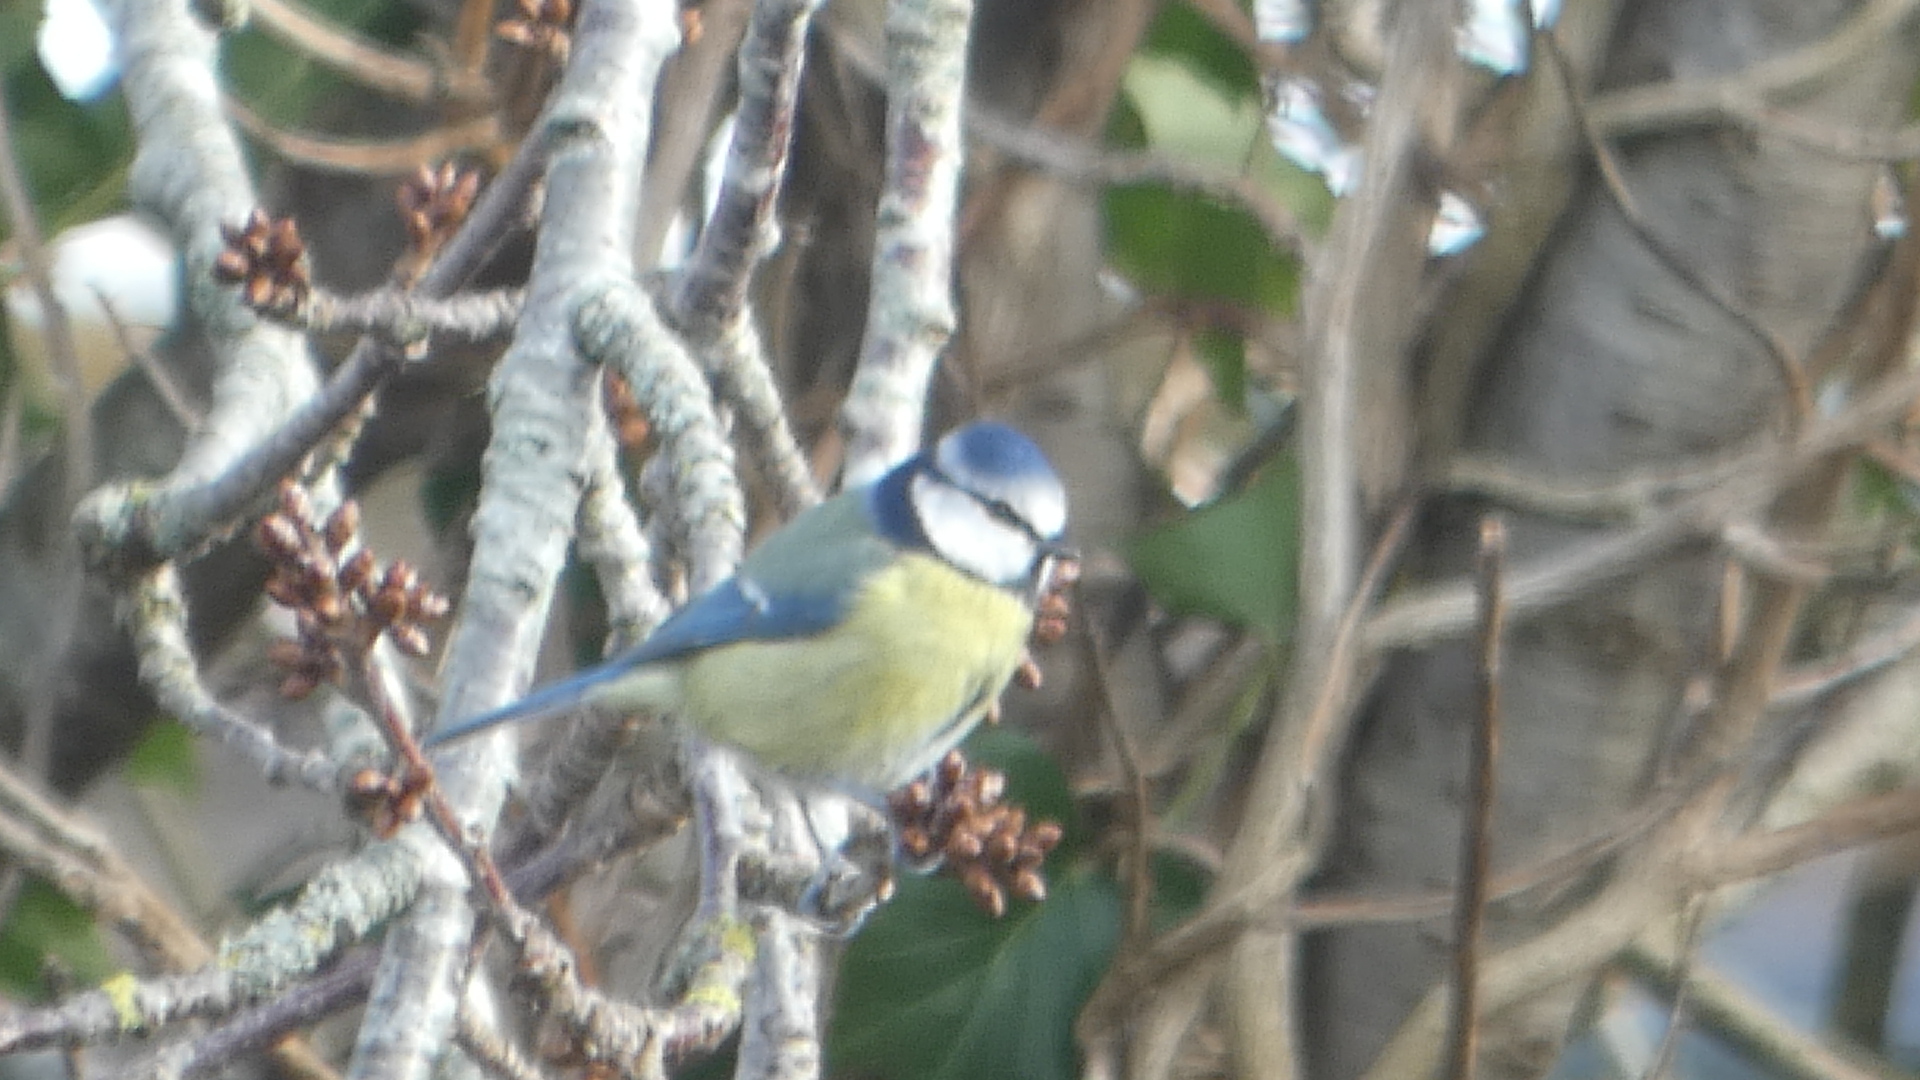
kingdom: Animalia
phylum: Chordata
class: Aves
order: Passeriformes
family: Paridae
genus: Cyanistes
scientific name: Cyanistes caeruleus
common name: Eurasian blue tit
